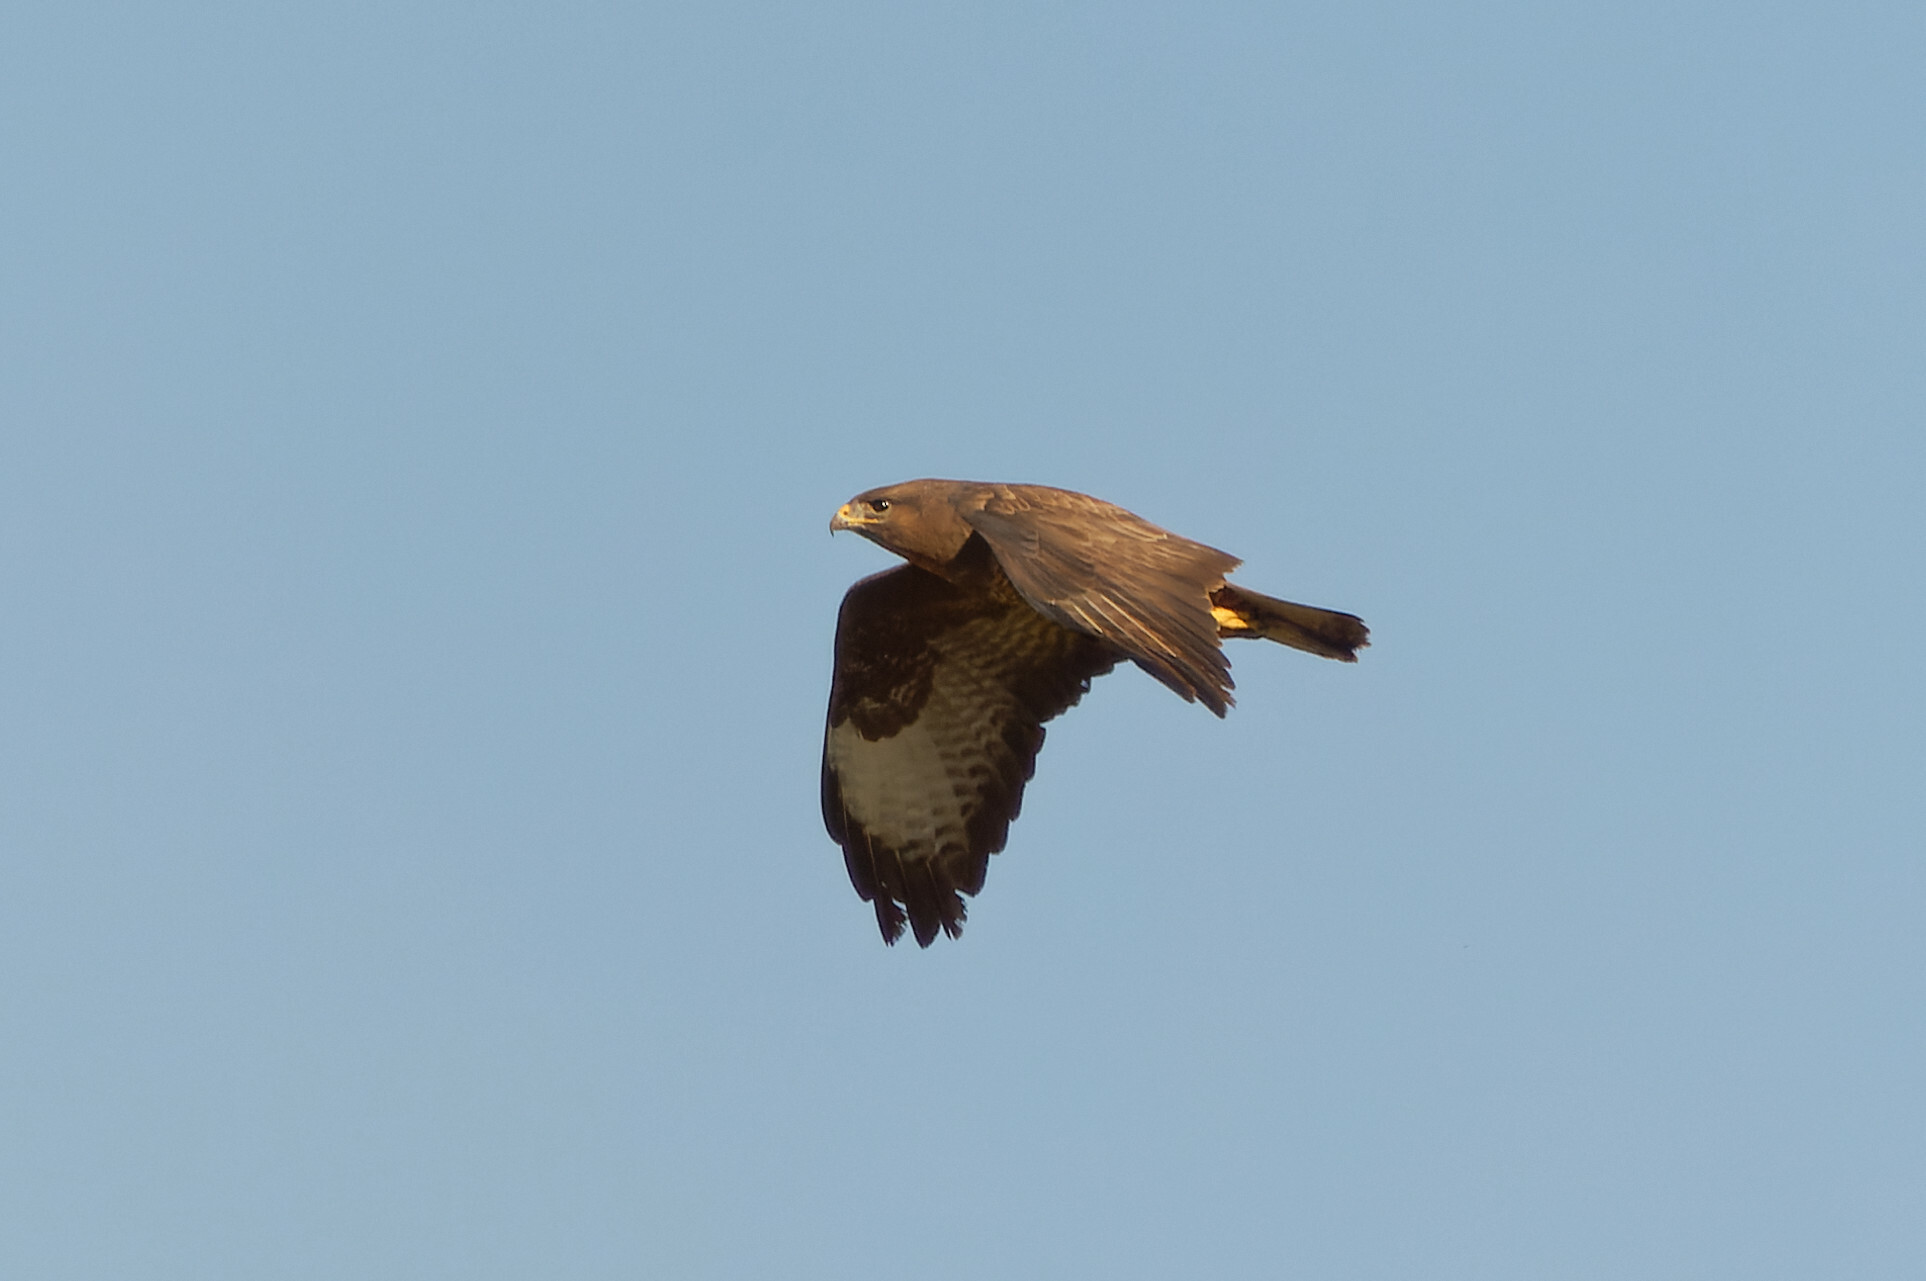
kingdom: Animalia
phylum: Chordata
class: Aves
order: Accipitriformes
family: Accipitridae
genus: Buteo
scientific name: Buteo buteo
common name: Common buzzard
